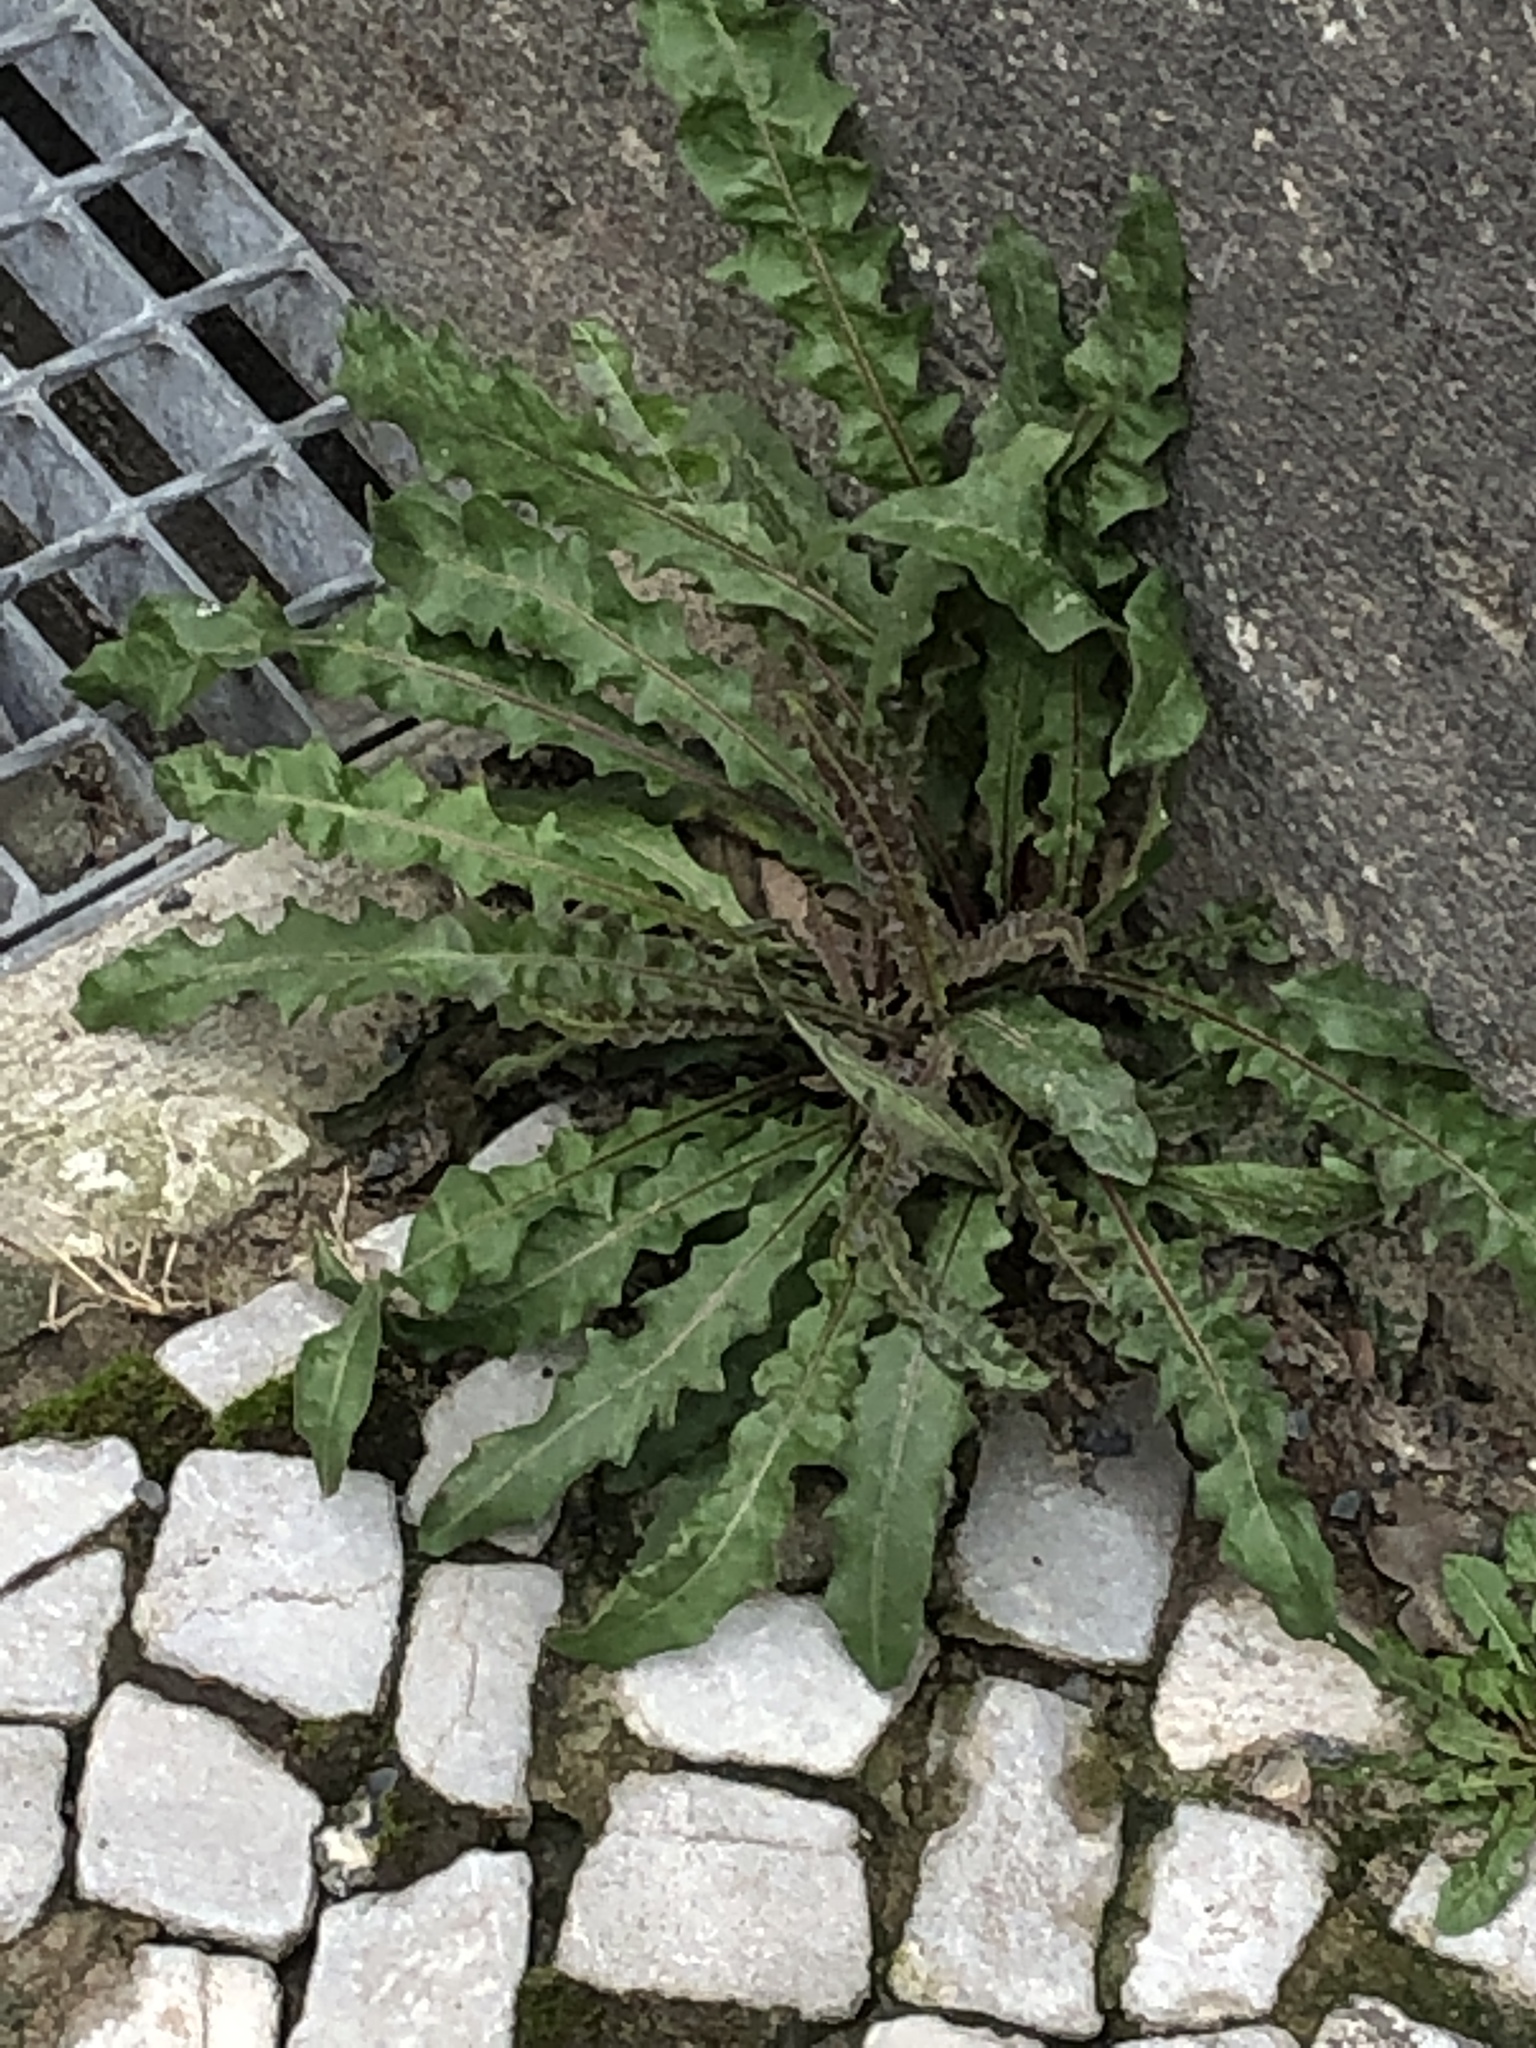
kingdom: Plantae
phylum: Tracheophyta
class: Magnoliopsida
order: Asterales
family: Asteraceae
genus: Taraxacum
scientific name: Taraxacum officinale
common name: Common dandelion
